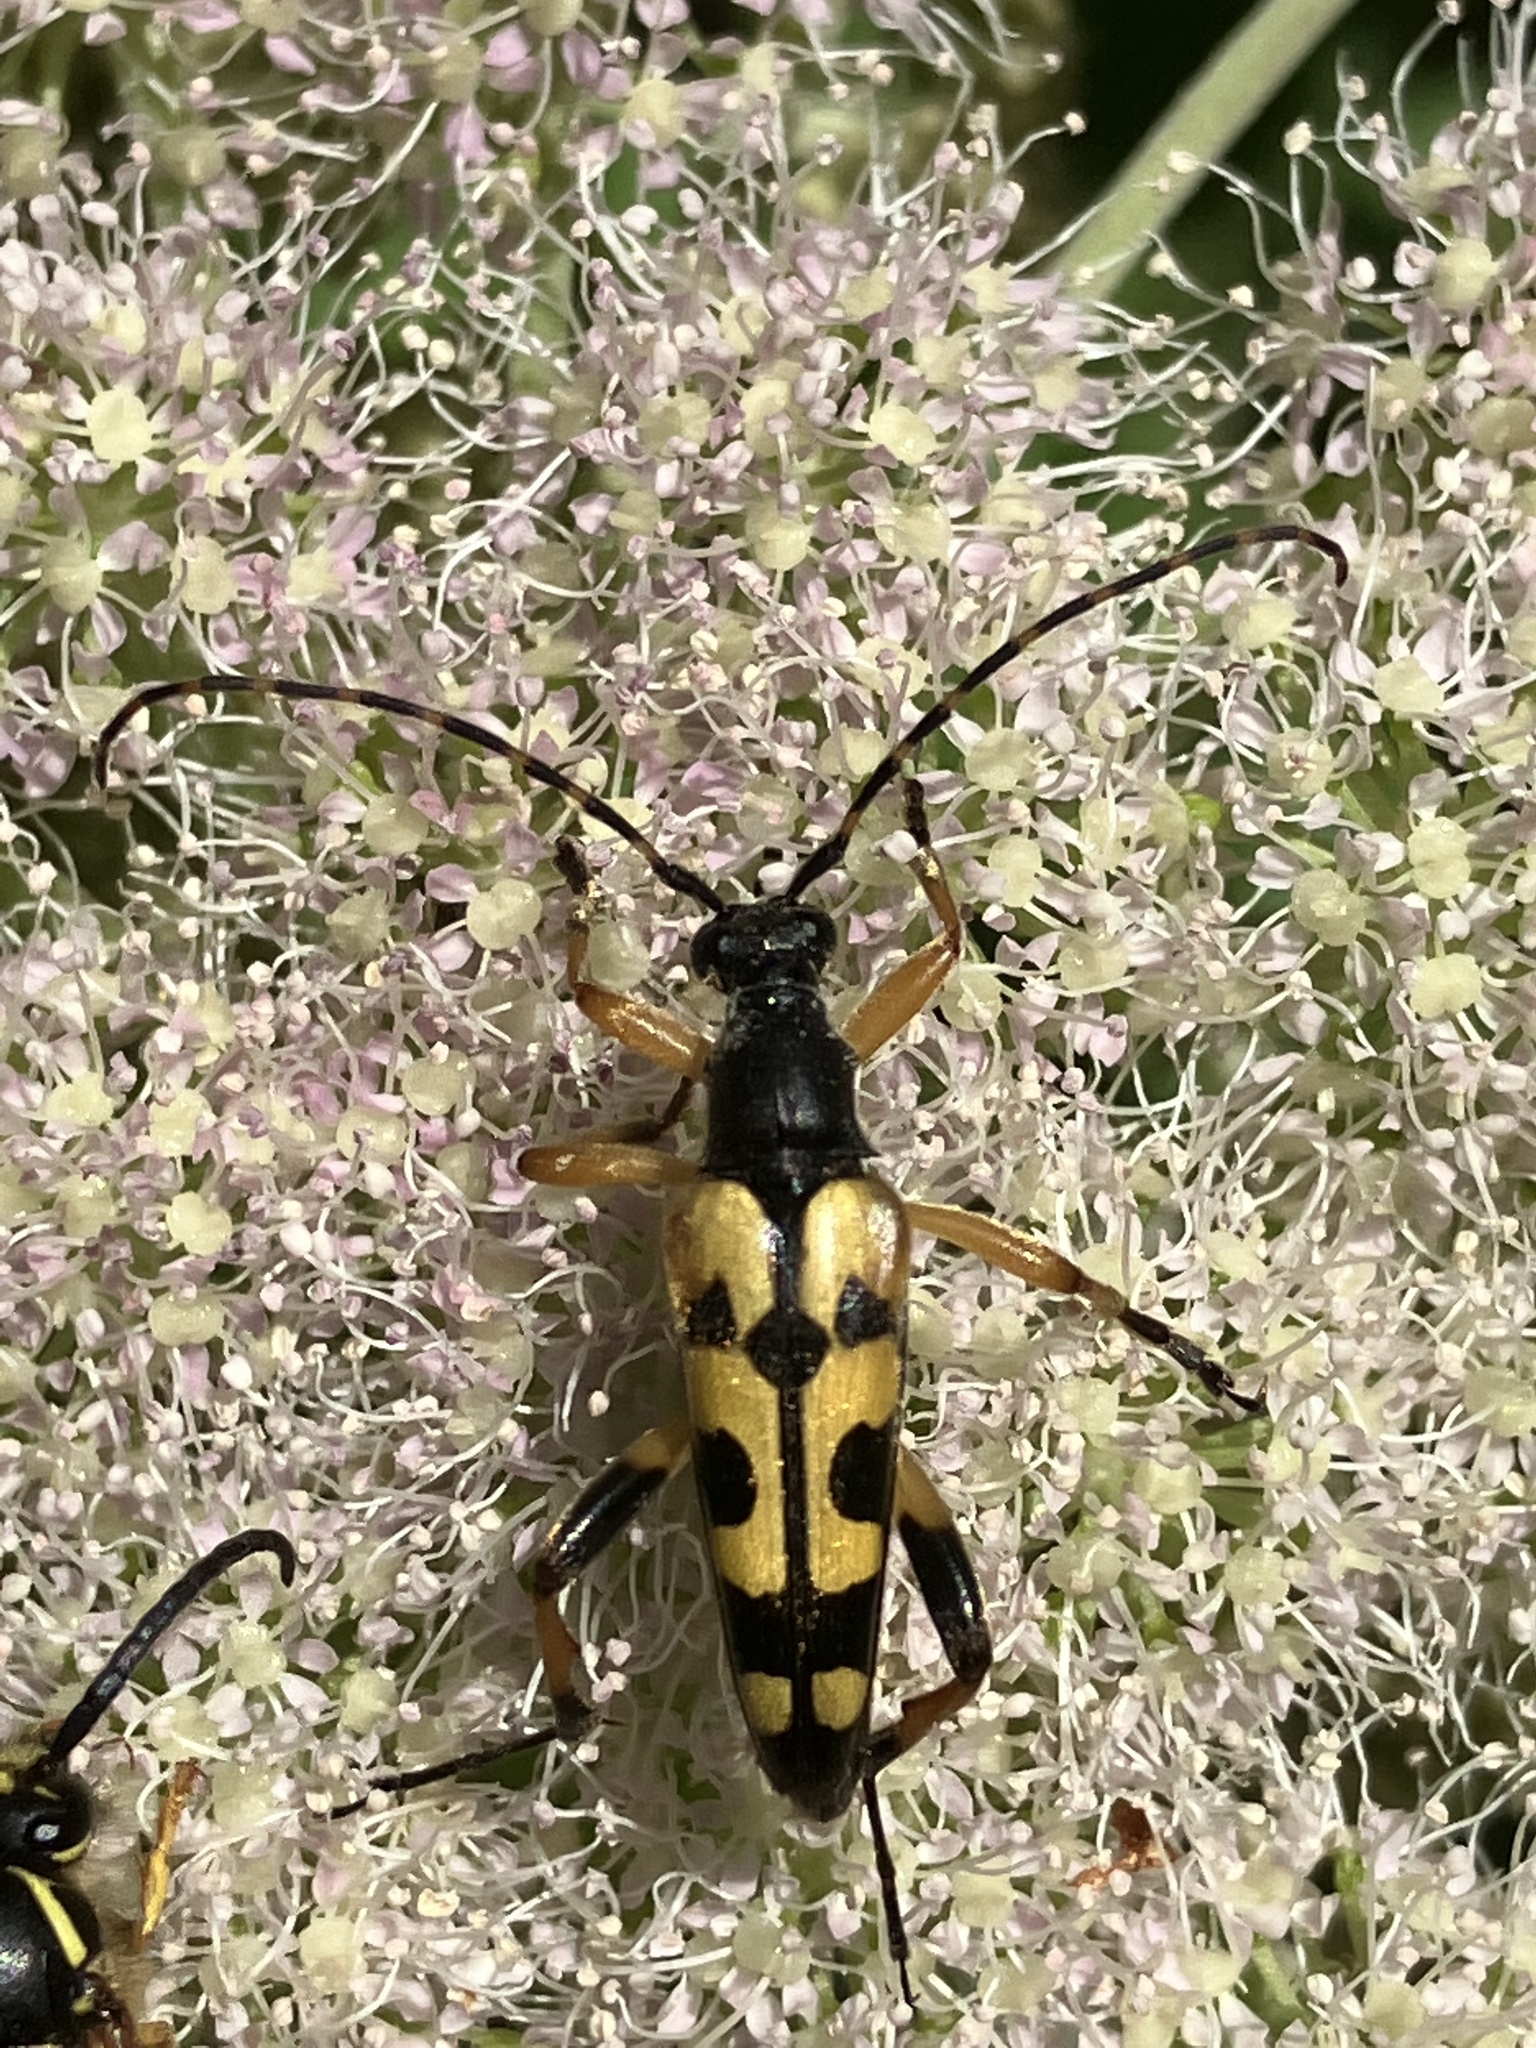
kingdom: Animalia
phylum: Arthropoda
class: Insecta
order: Coleoptera
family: Cerambycidae
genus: Rutpela
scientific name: Rutpela maculata
